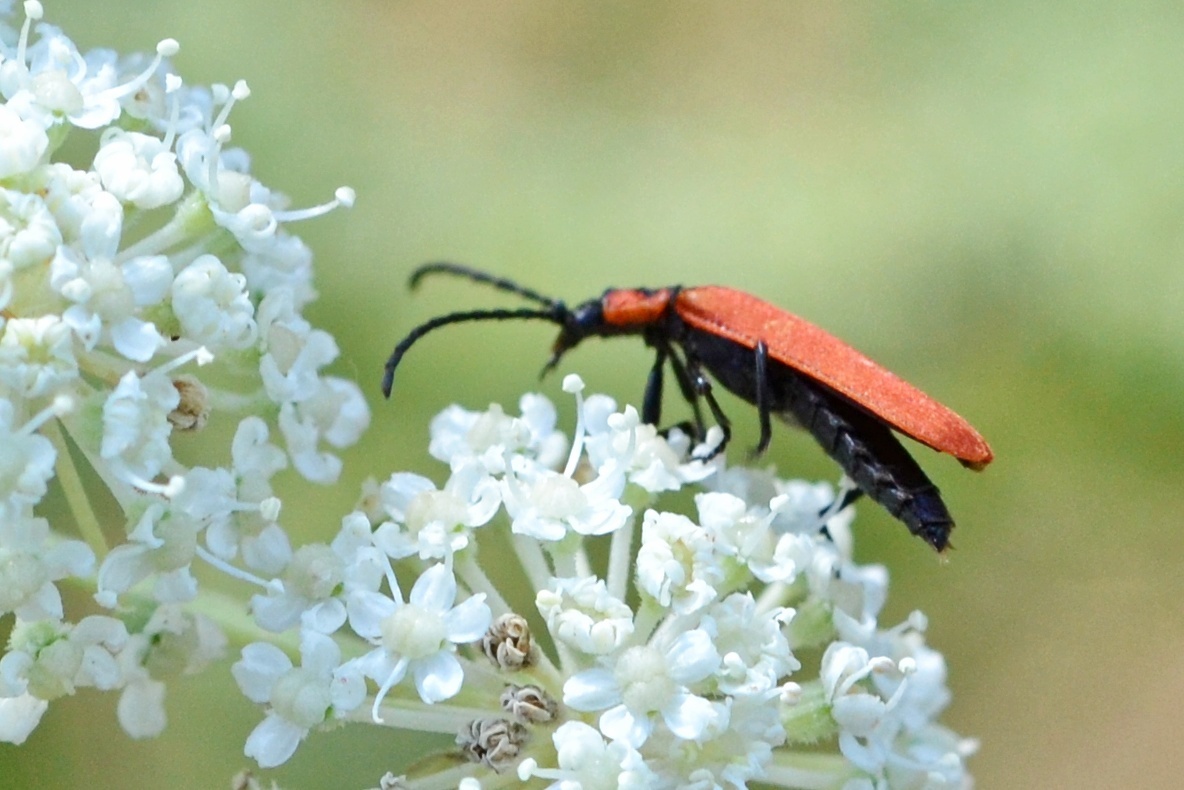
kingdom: Animalia
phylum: Arthropoda
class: Insecta
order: Coleoptera
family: Lycidae
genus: Lygistopterus
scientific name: Lygistopterus sanguineus
